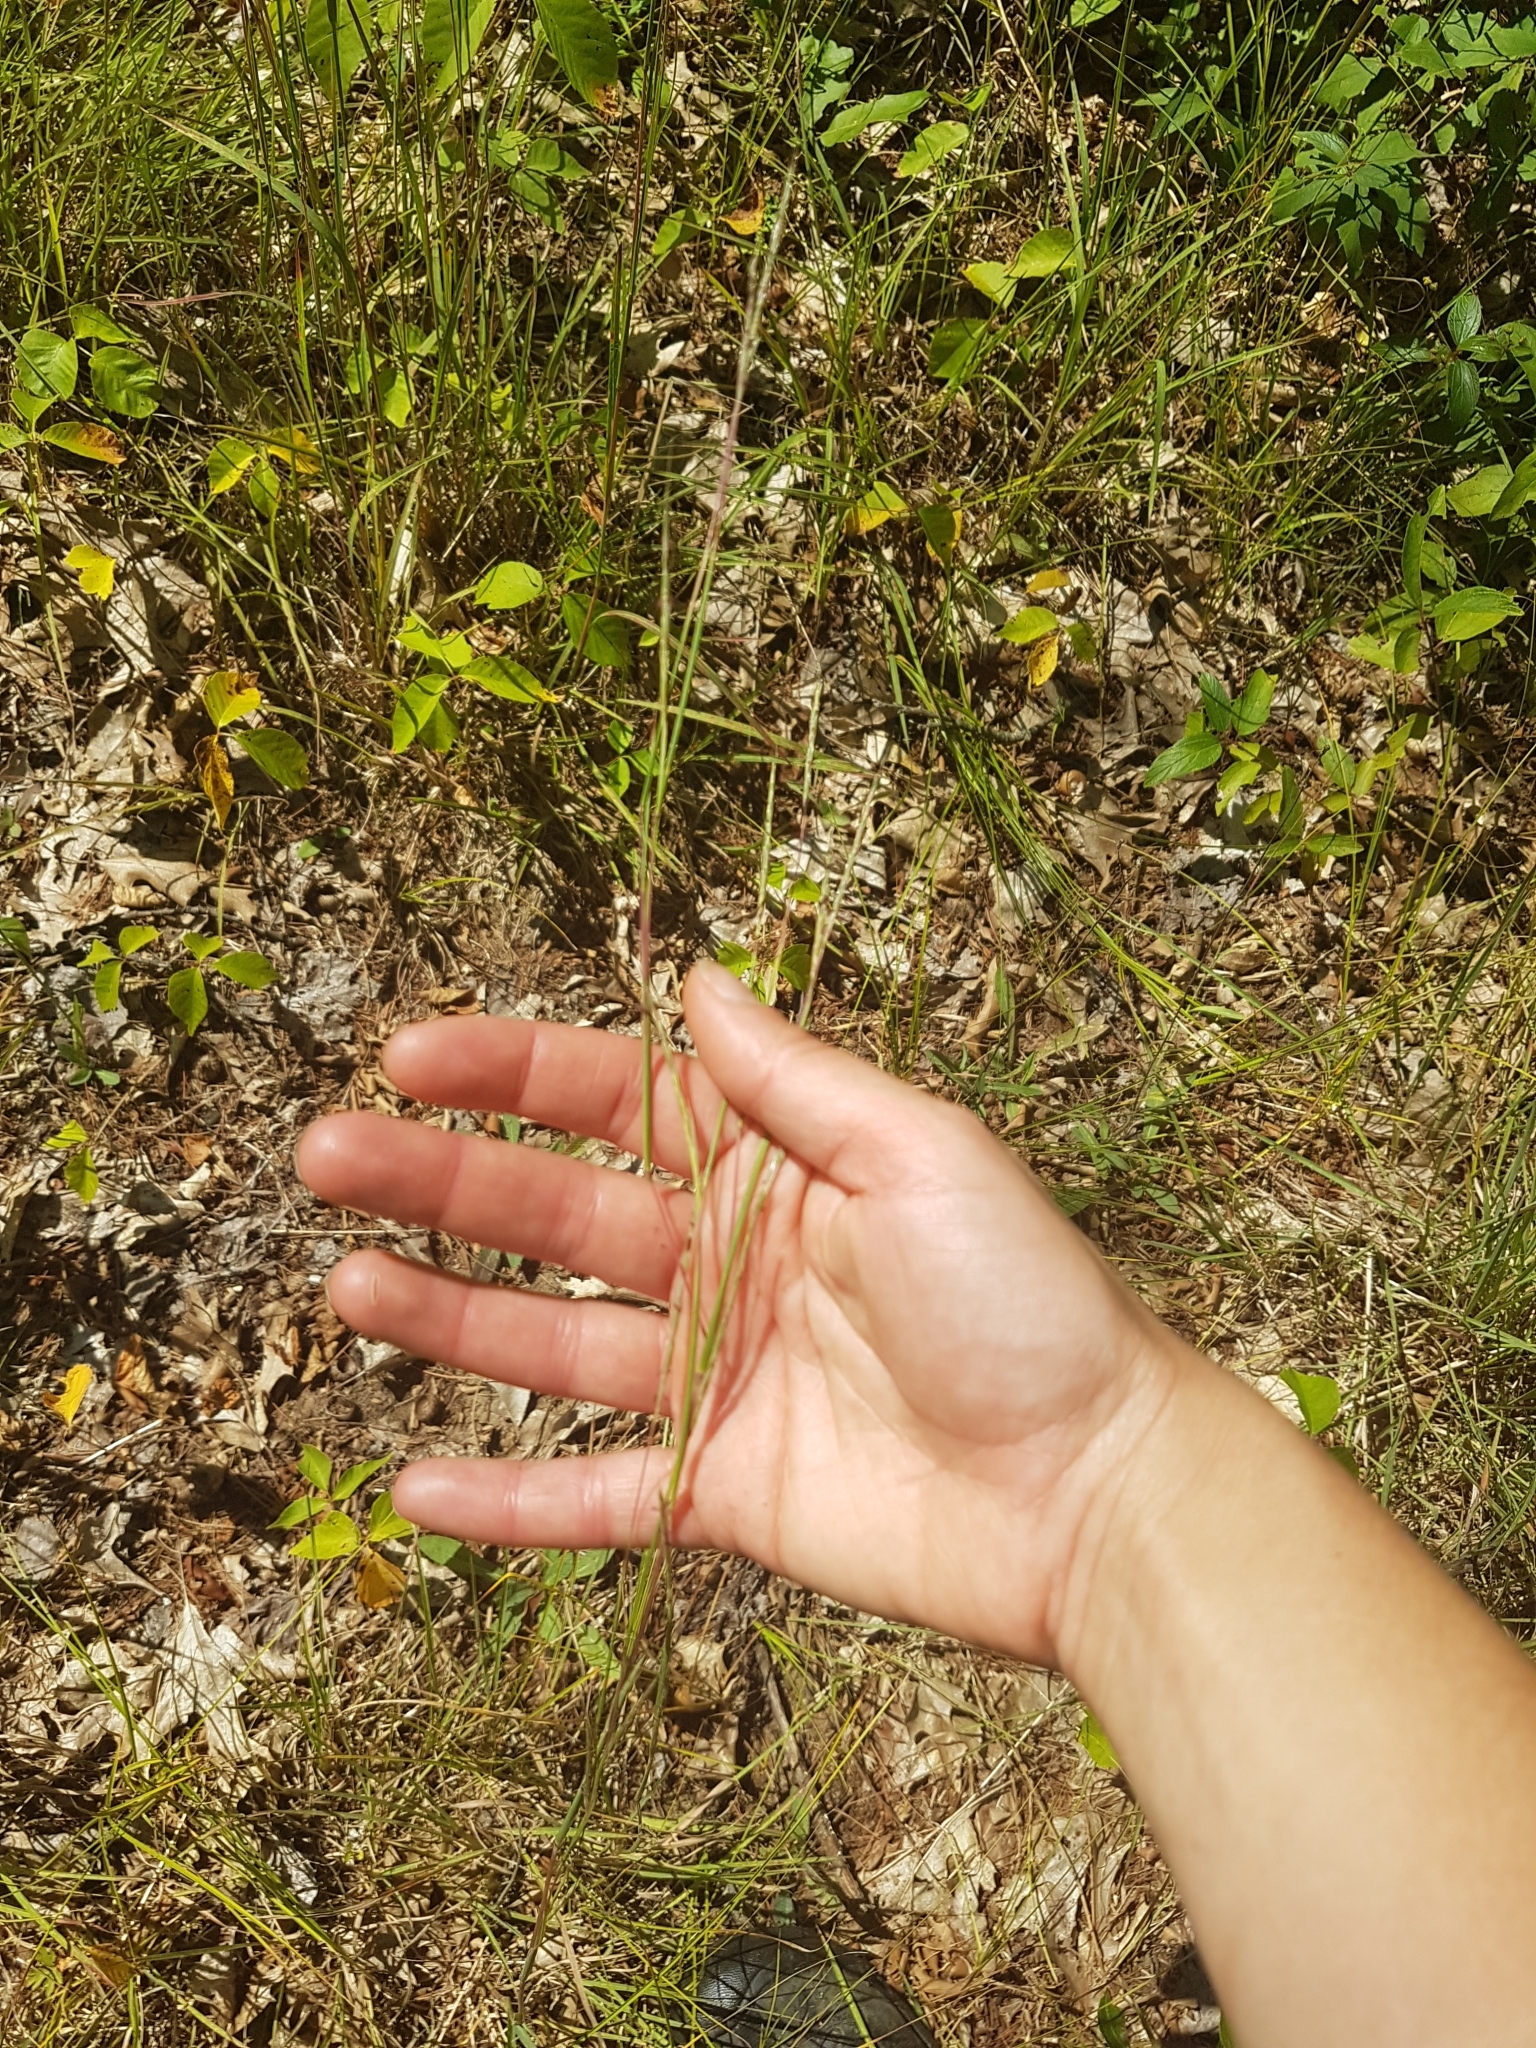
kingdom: Plantae
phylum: Tracheophyta
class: Liliopsida
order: Poales
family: Poaceae
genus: Schizachyrium
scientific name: Schizachyrium scoparium
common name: Little bluestem
